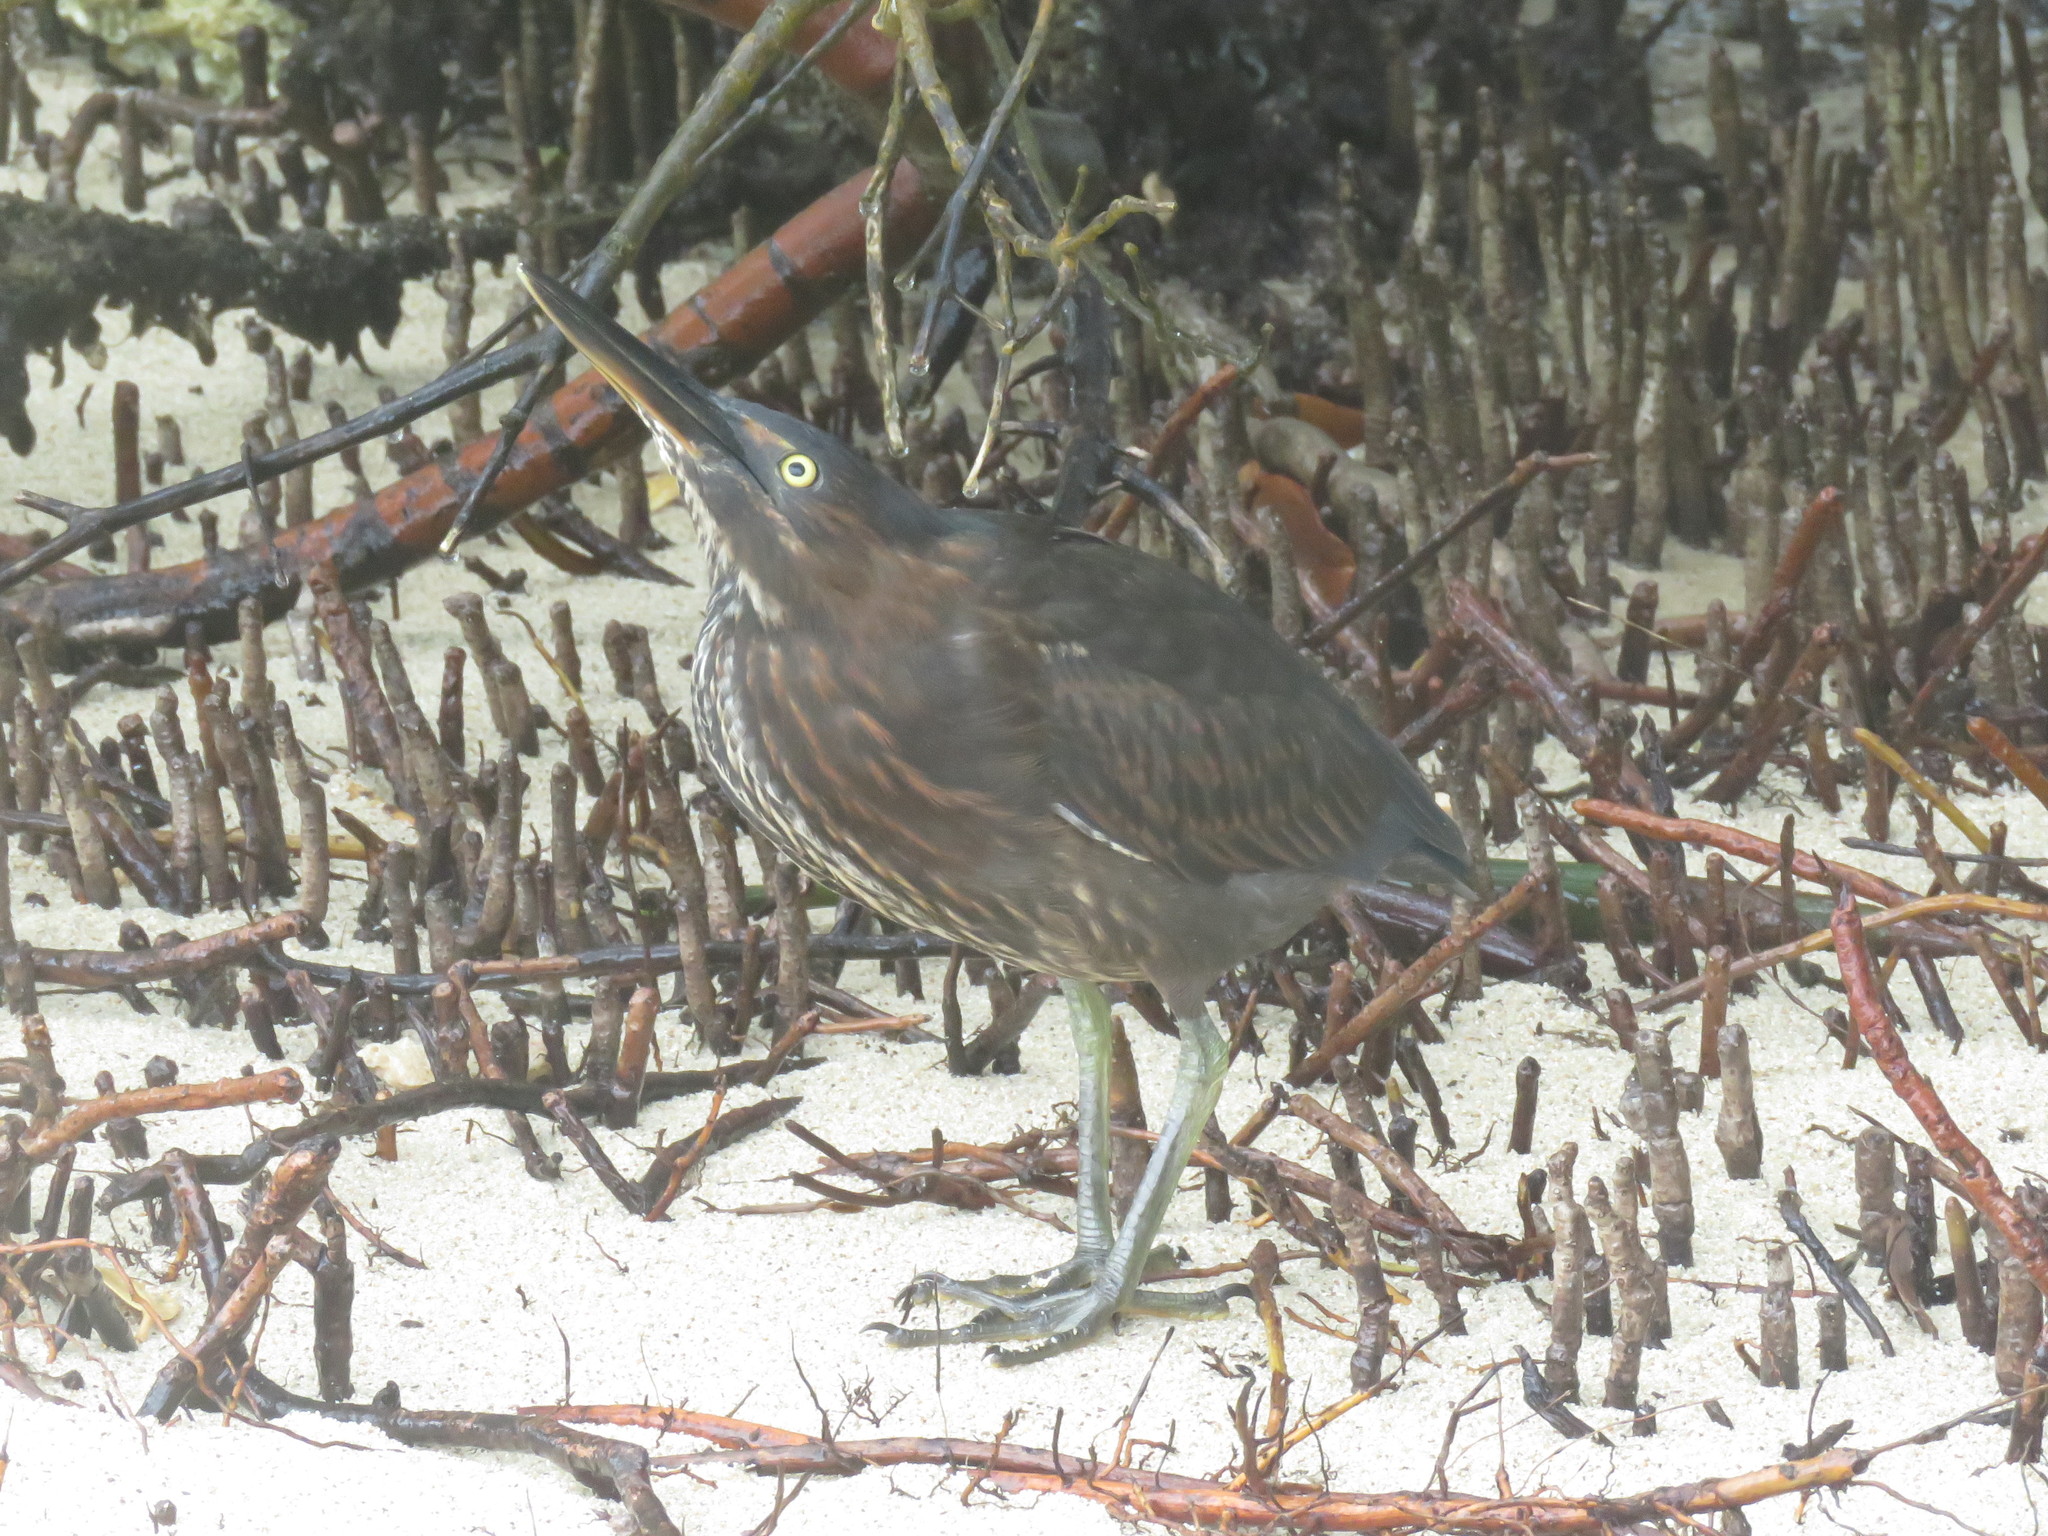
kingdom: Animalia
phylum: Chordata
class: Aves
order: Pelecaniformes
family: Ardeidae
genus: Butorides
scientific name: Butorides striata
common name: Striated heron
